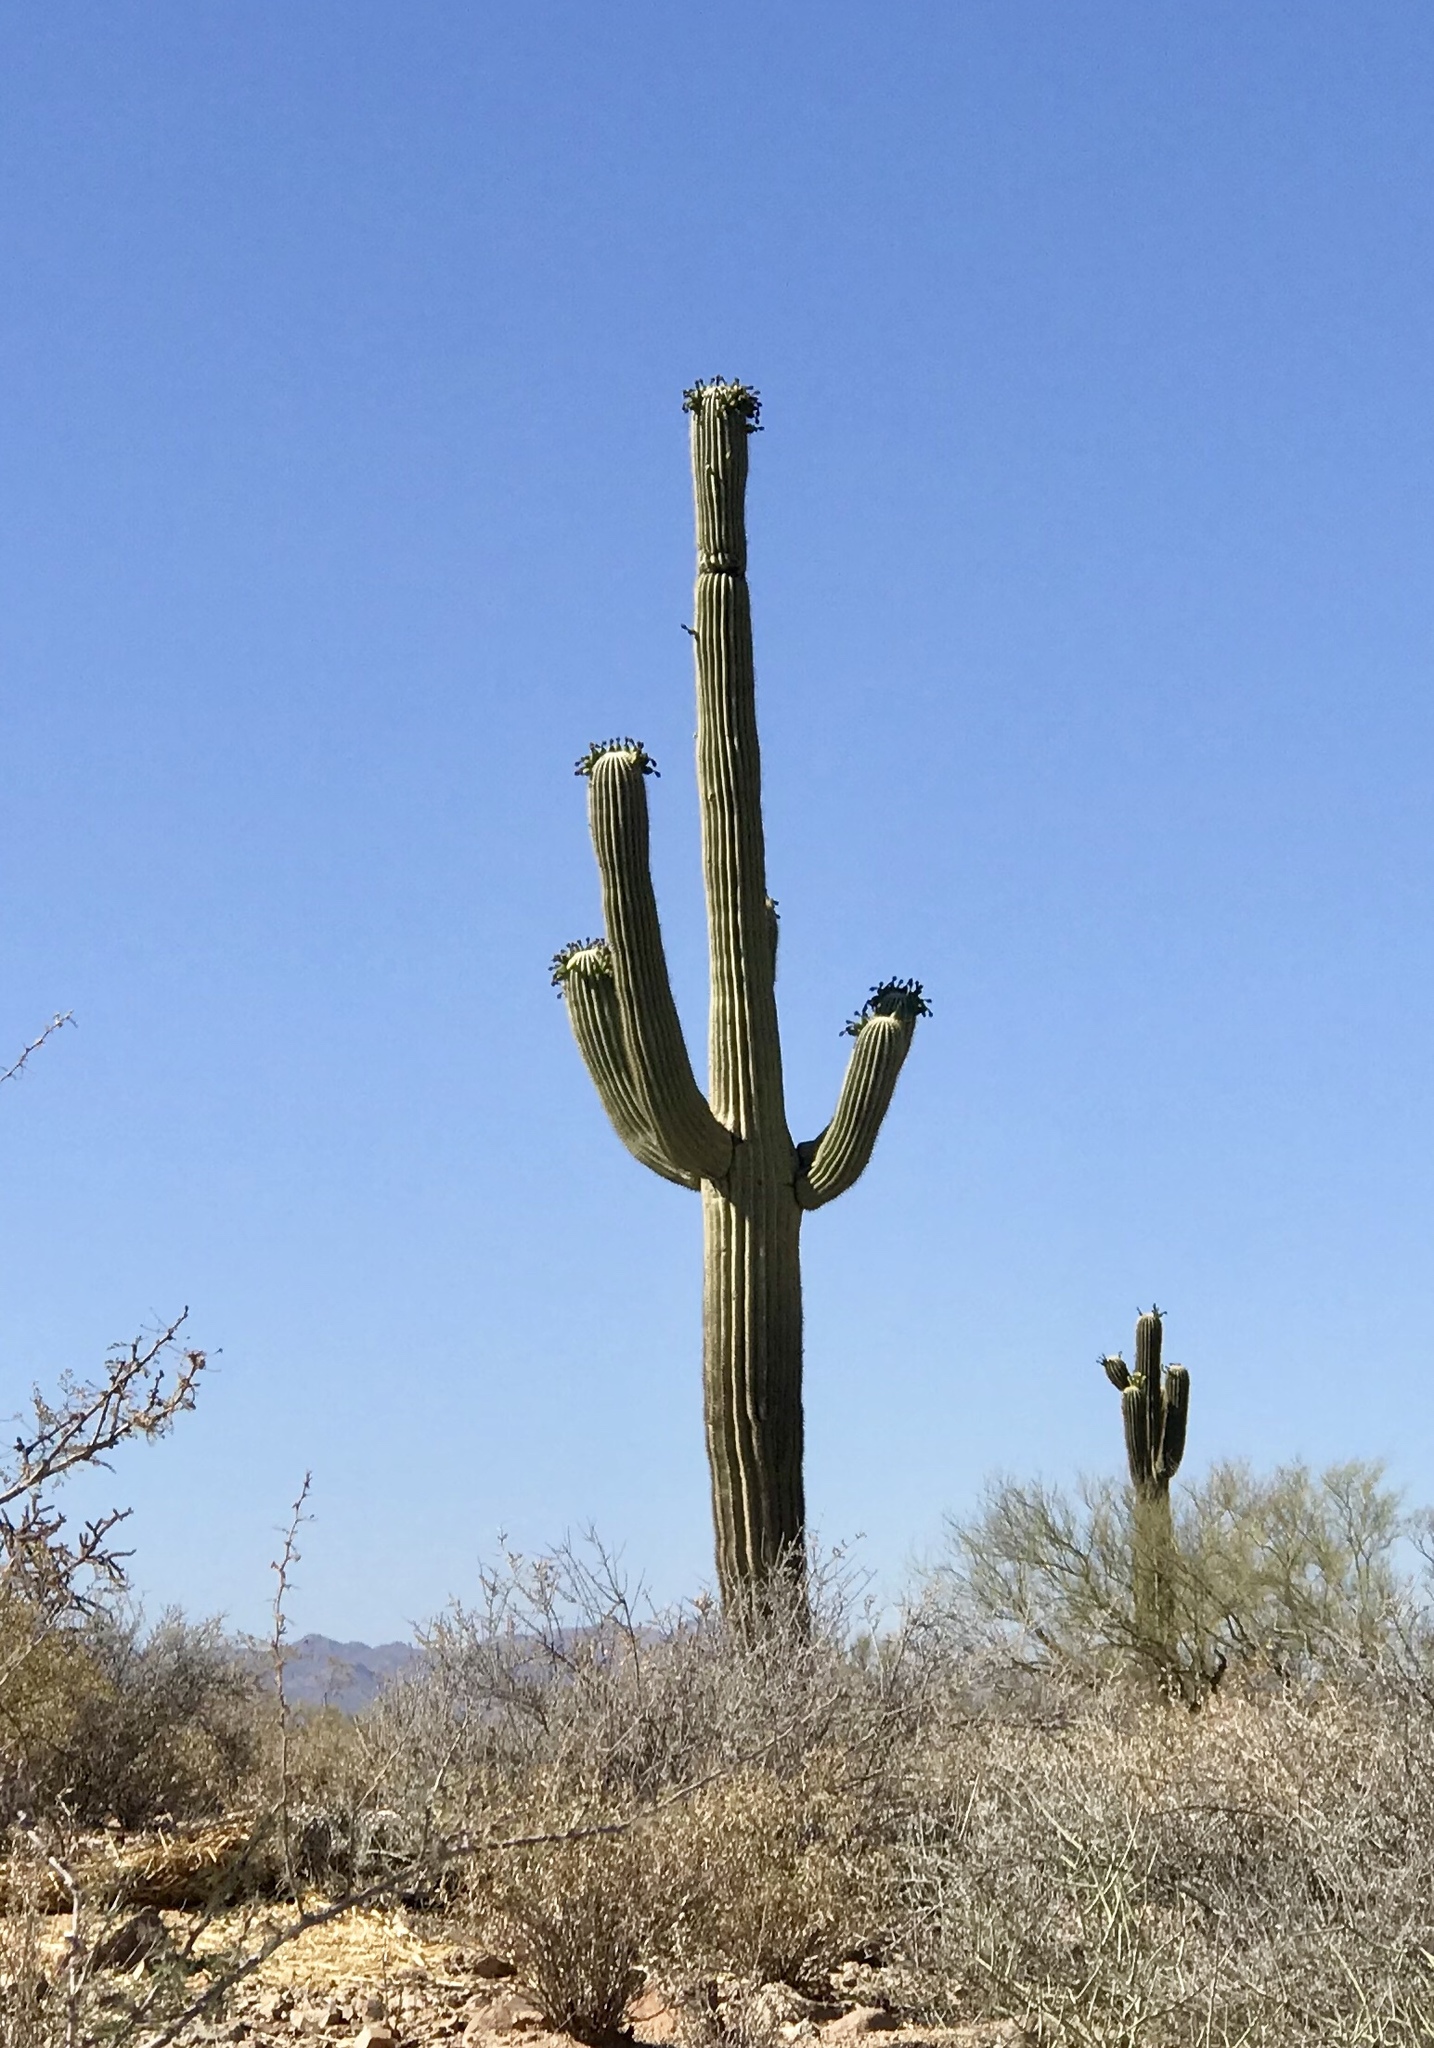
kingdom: Plantae
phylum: Tracheophyta
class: Magnoliopsida
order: Caryophyllales
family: Cactaceae
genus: Carnegiea
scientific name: Carnegiea gigantea
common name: Saguaro
